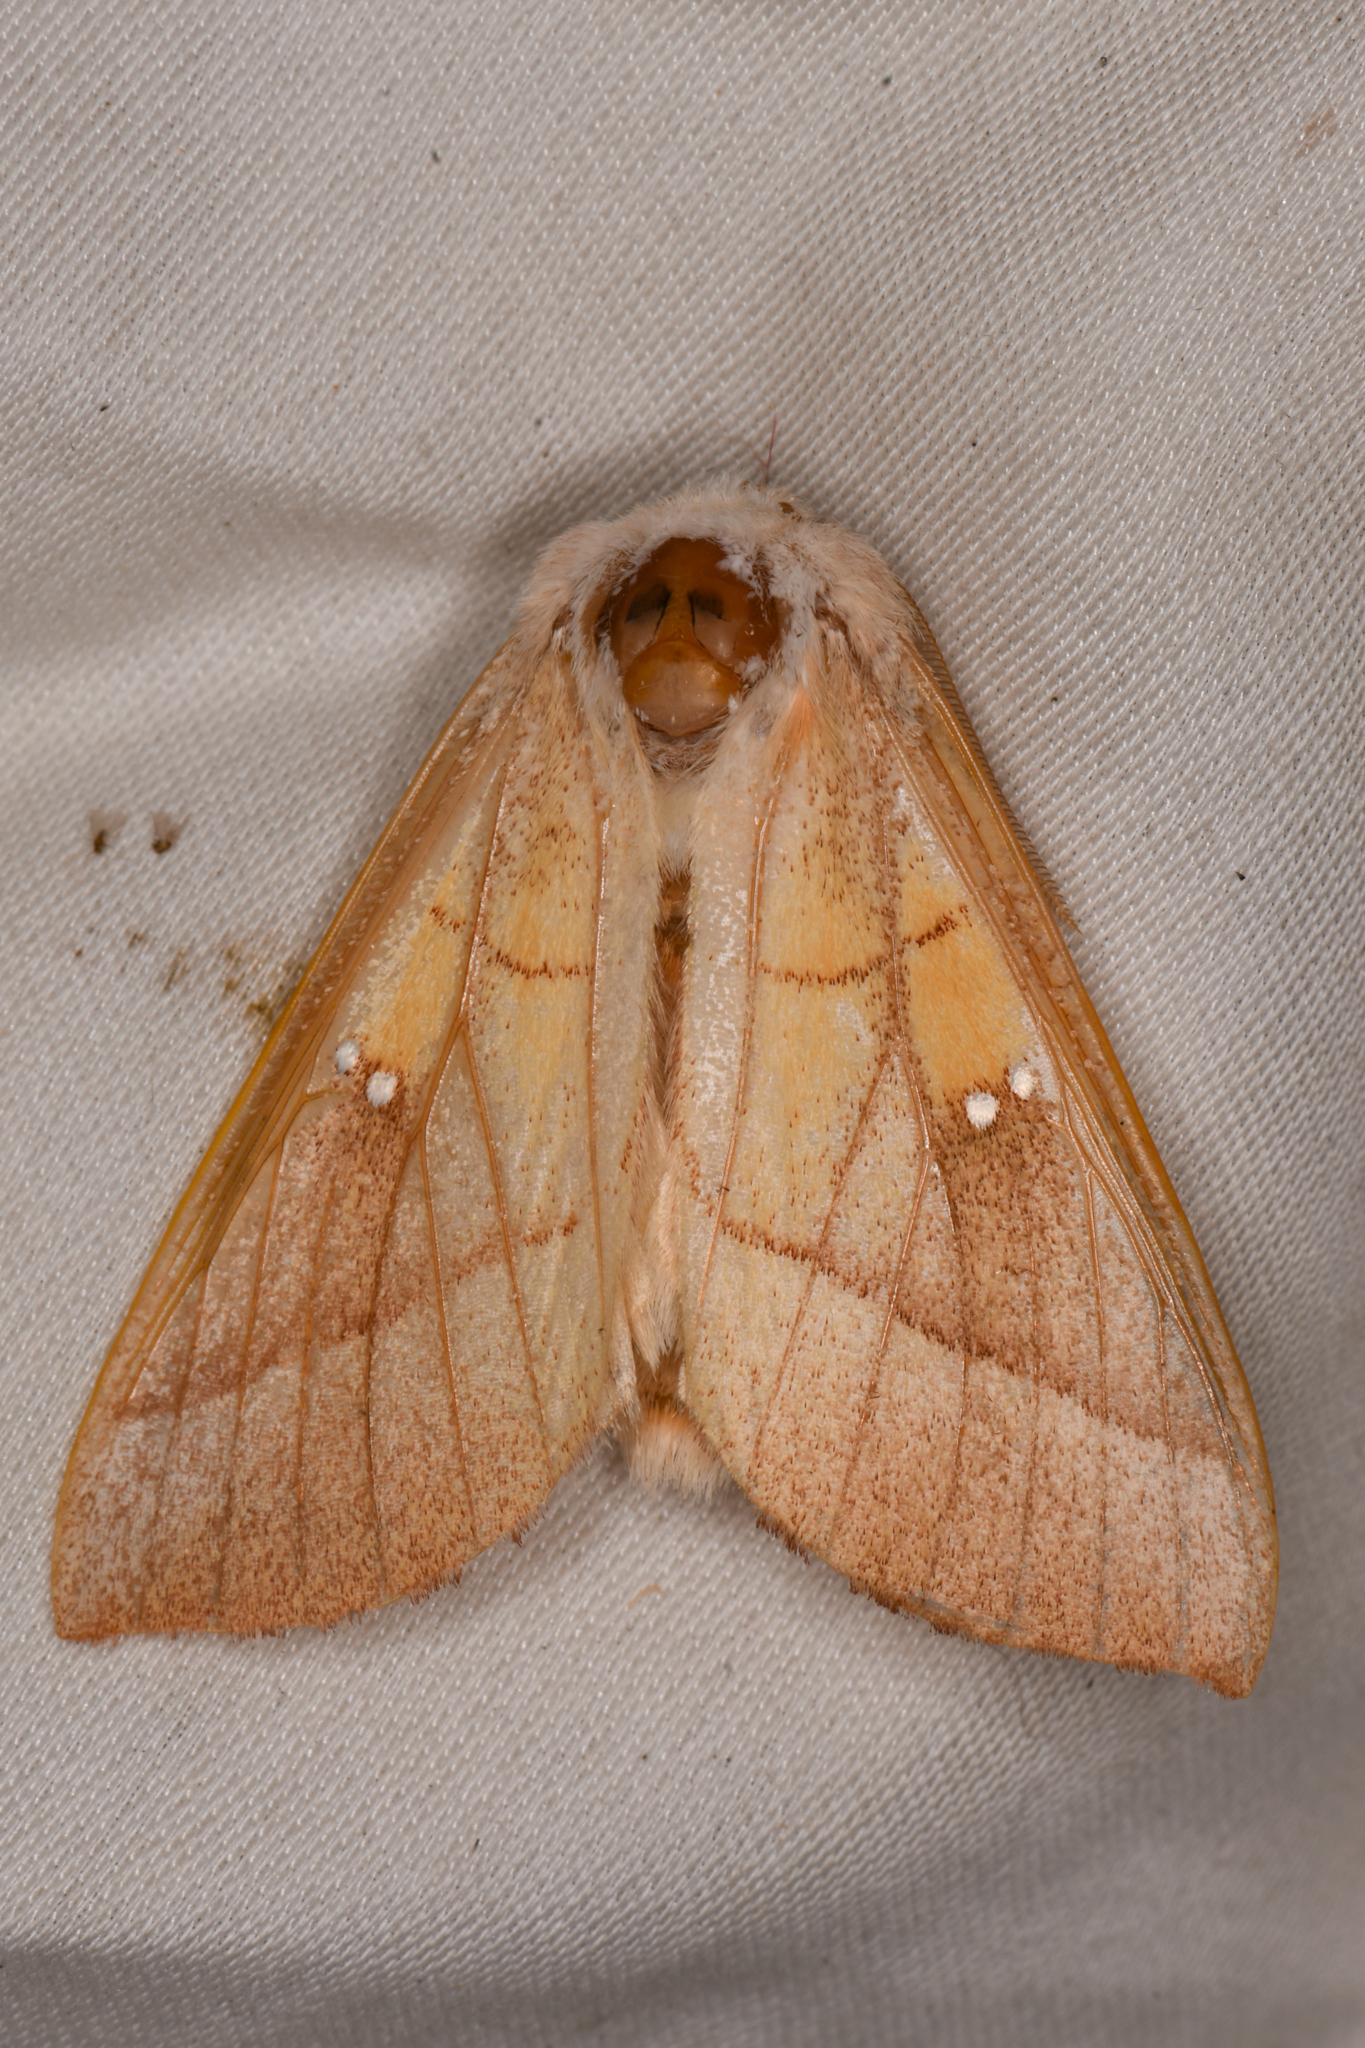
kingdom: Animalia
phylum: Arthropoda
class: Insecta
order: Lepidoptera
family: Notodontidae
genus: Nadata
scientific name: Nadata gibbosa
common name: White-dotted prominent
